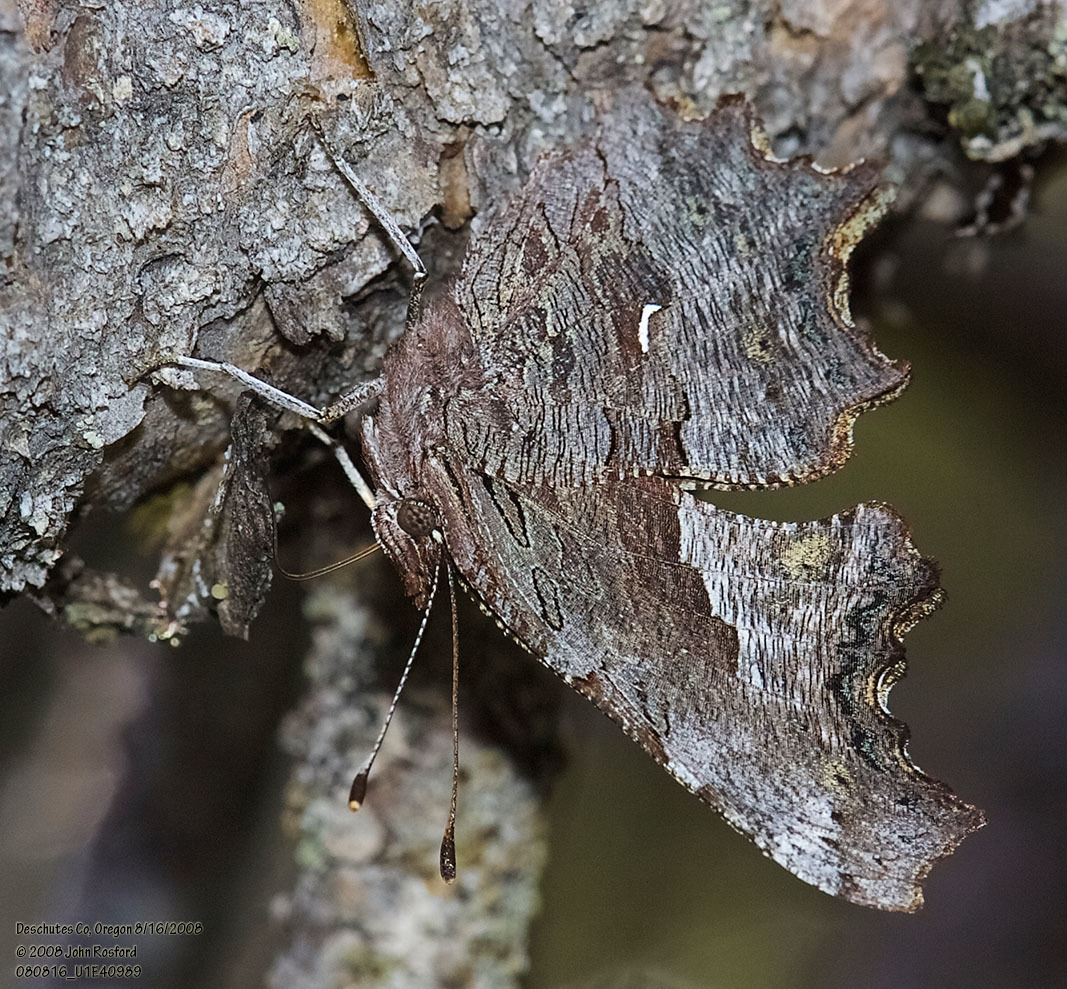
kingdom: Animalia
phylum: Arthropoda
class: Insecta
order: Lepidoptera
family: Nymphalidae
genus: Polygonia
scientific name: Polygonia gracilis
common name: Hoary comma
